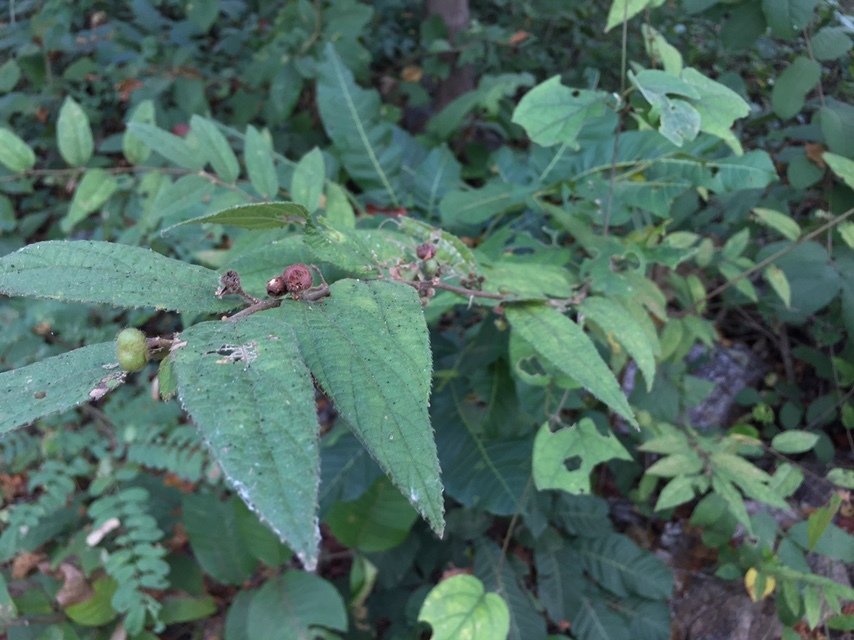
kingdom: Plantae
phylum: Tracheophyta
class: Magnoliopsida
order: Malvales
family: Malvaceae
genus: Grewia
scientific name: Grewia hirsuta
